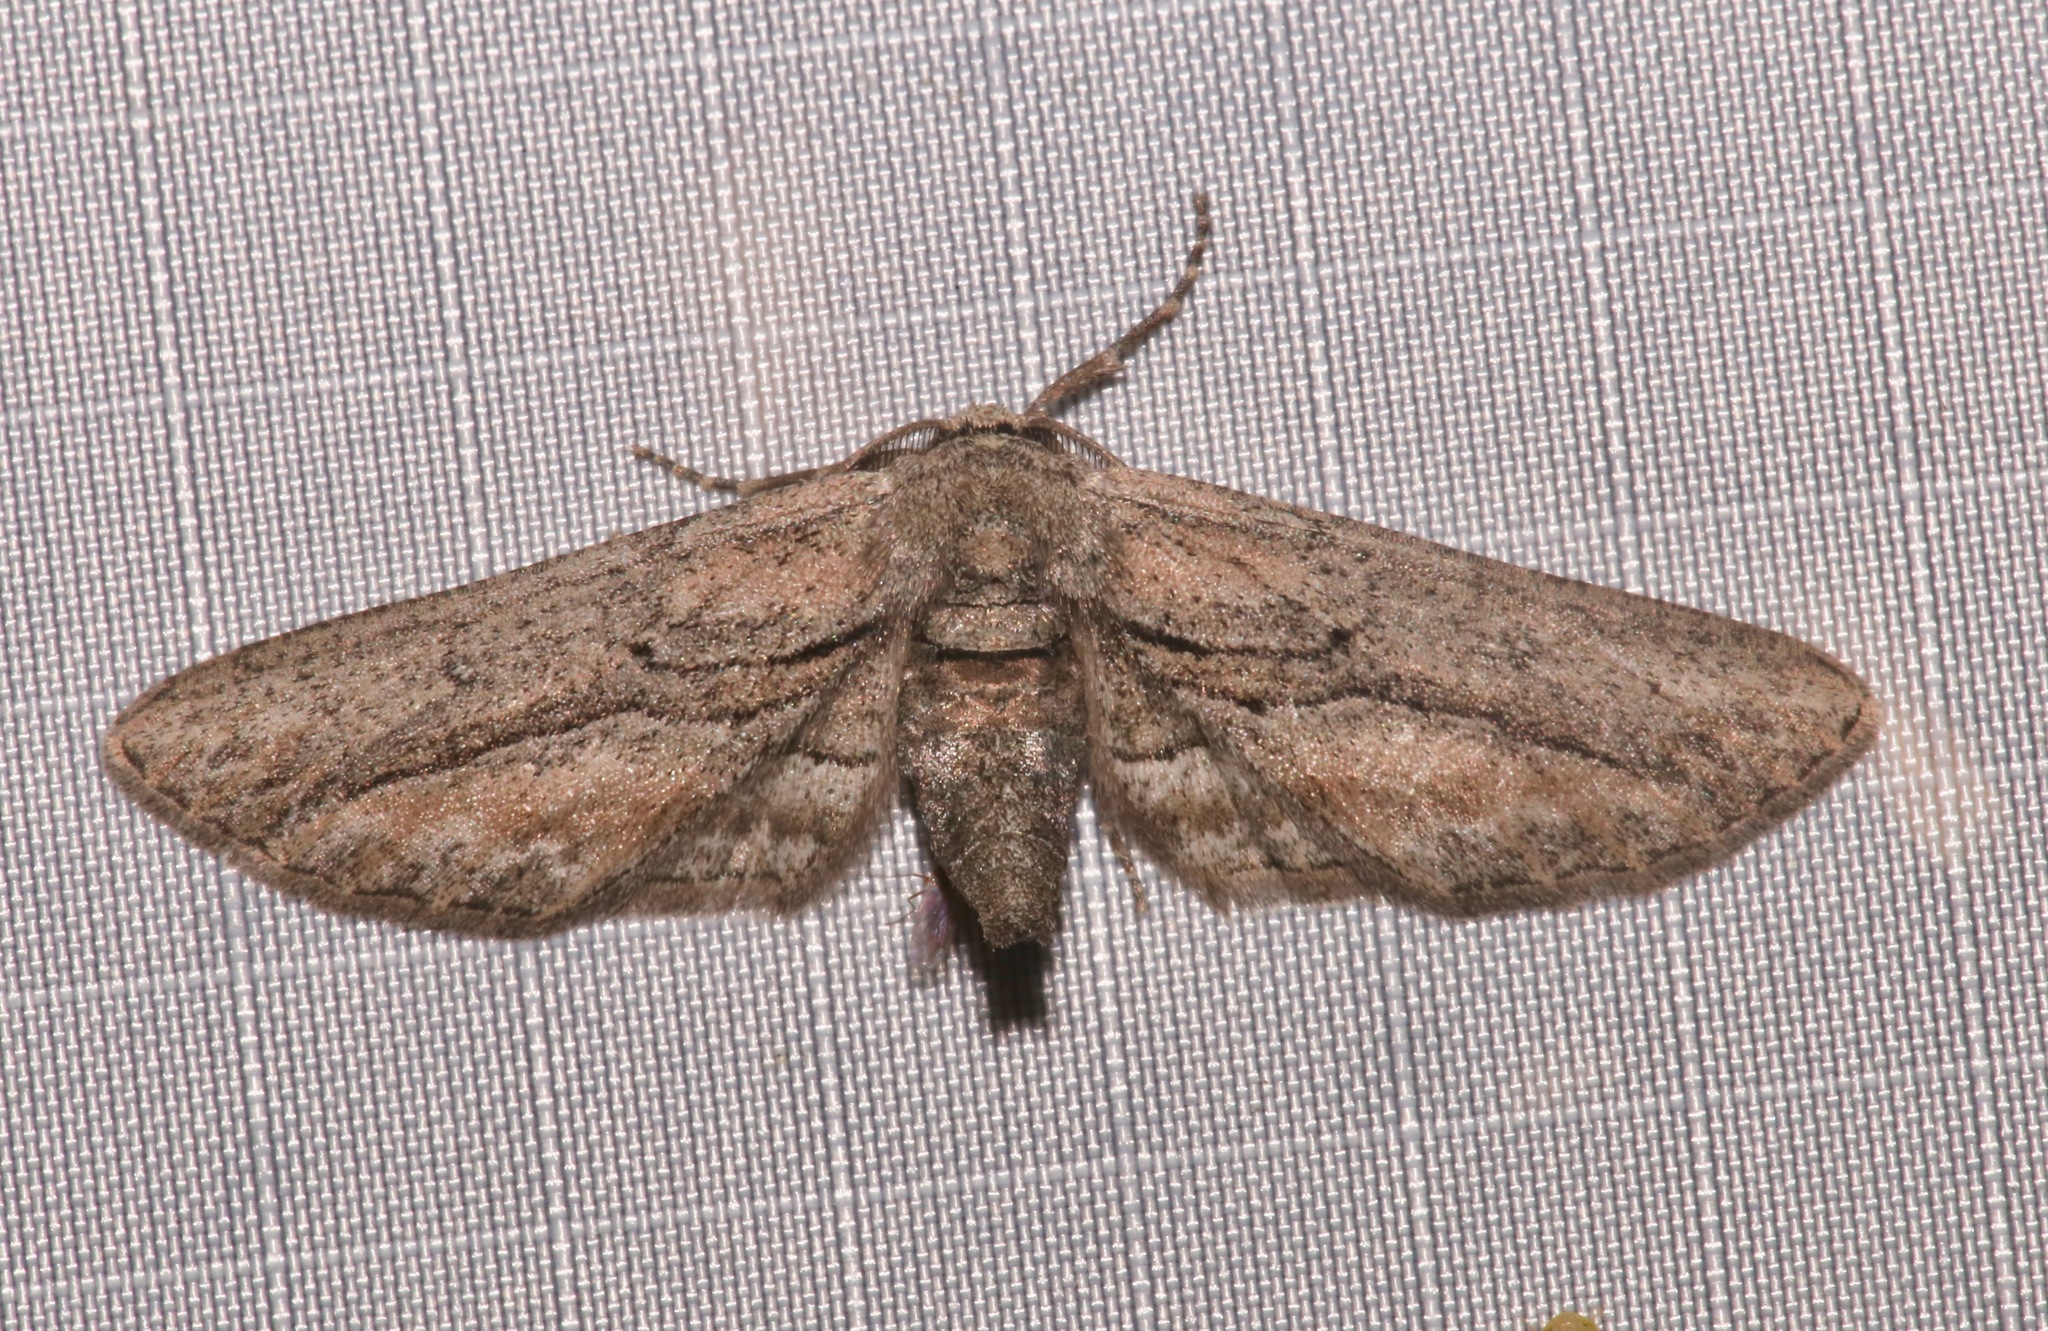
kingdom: Animalia
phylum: Arthropoda
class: Insecta
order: Lepidoptera
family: Geometridae
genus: Holochroa
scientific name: Holochroa dissociarius
